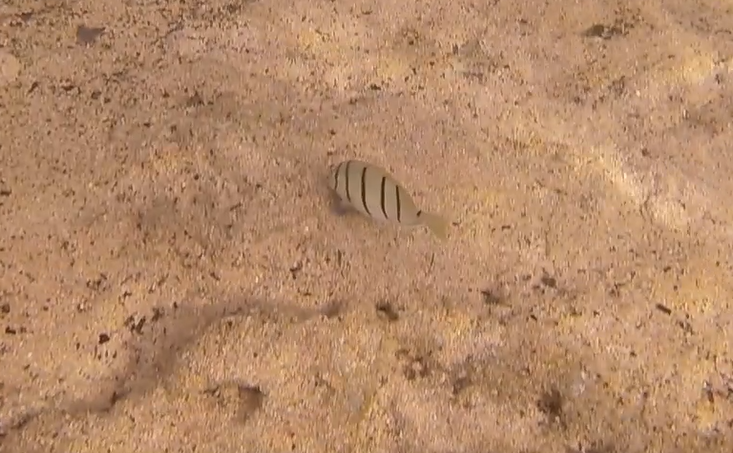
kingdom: Animalia
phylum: Chordata
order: Perciformes
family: Acanthuridae
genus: Acanthurus
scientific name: Acanthurus triostegus
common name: Convict surgeonfish
